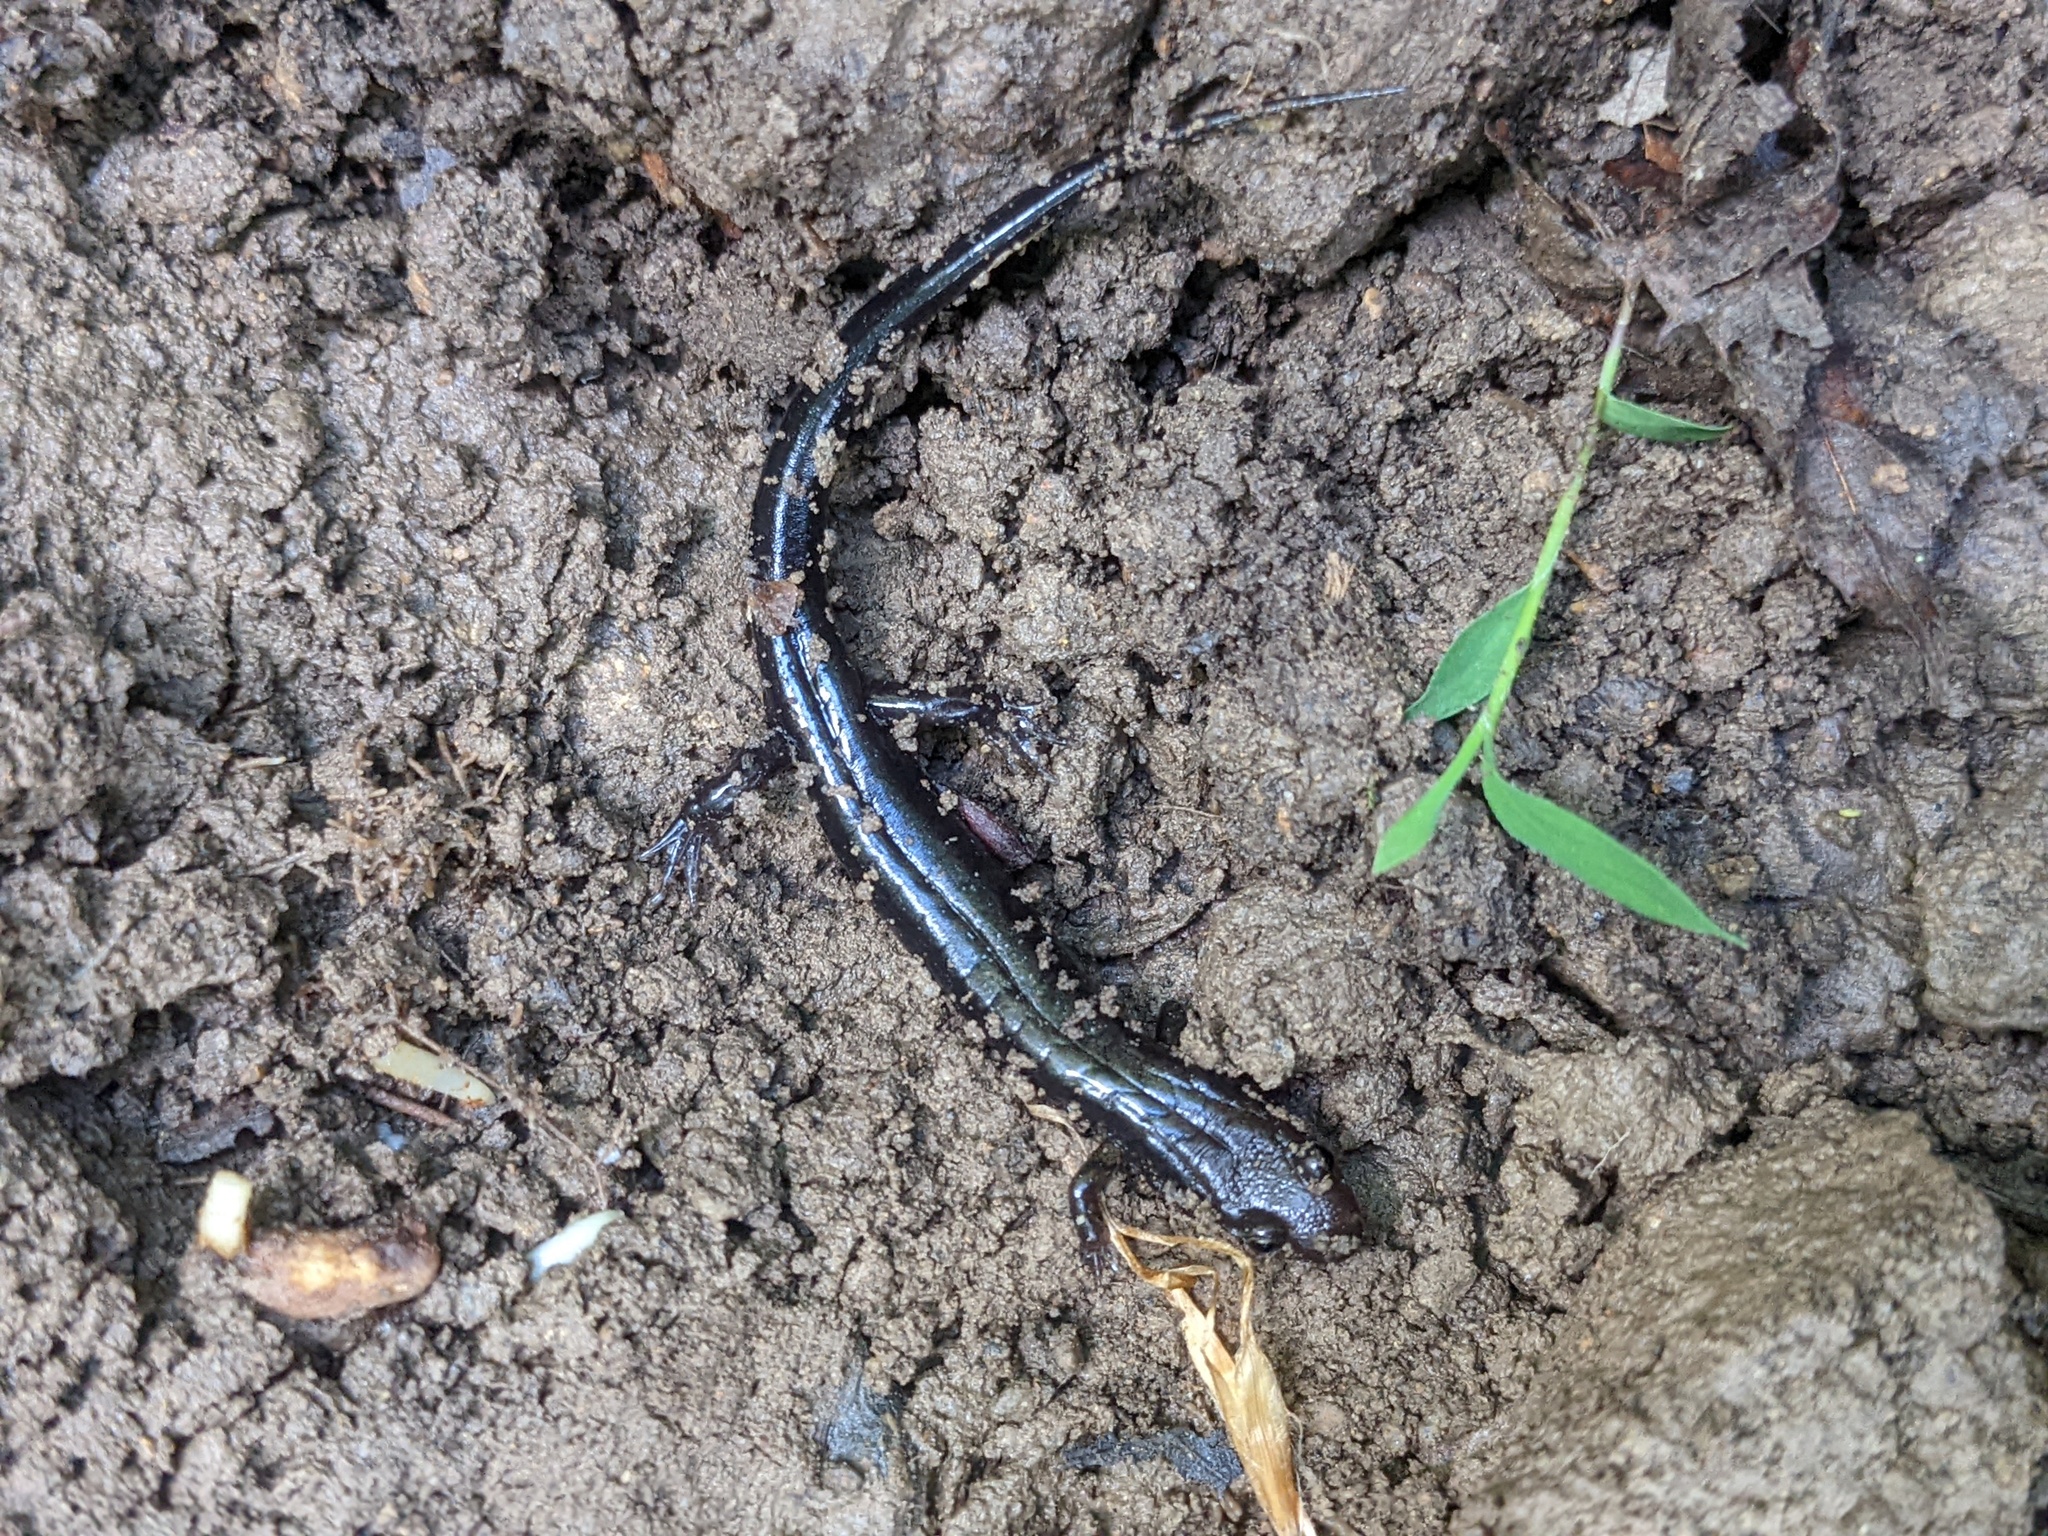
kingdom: Animalia
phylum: Chordata
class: Amphibia
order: Caudata
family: Plethodontidae
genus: Desmognathus
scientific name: Desmognathus ochrophaeus
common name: Allegheny mountain dusky salamander
